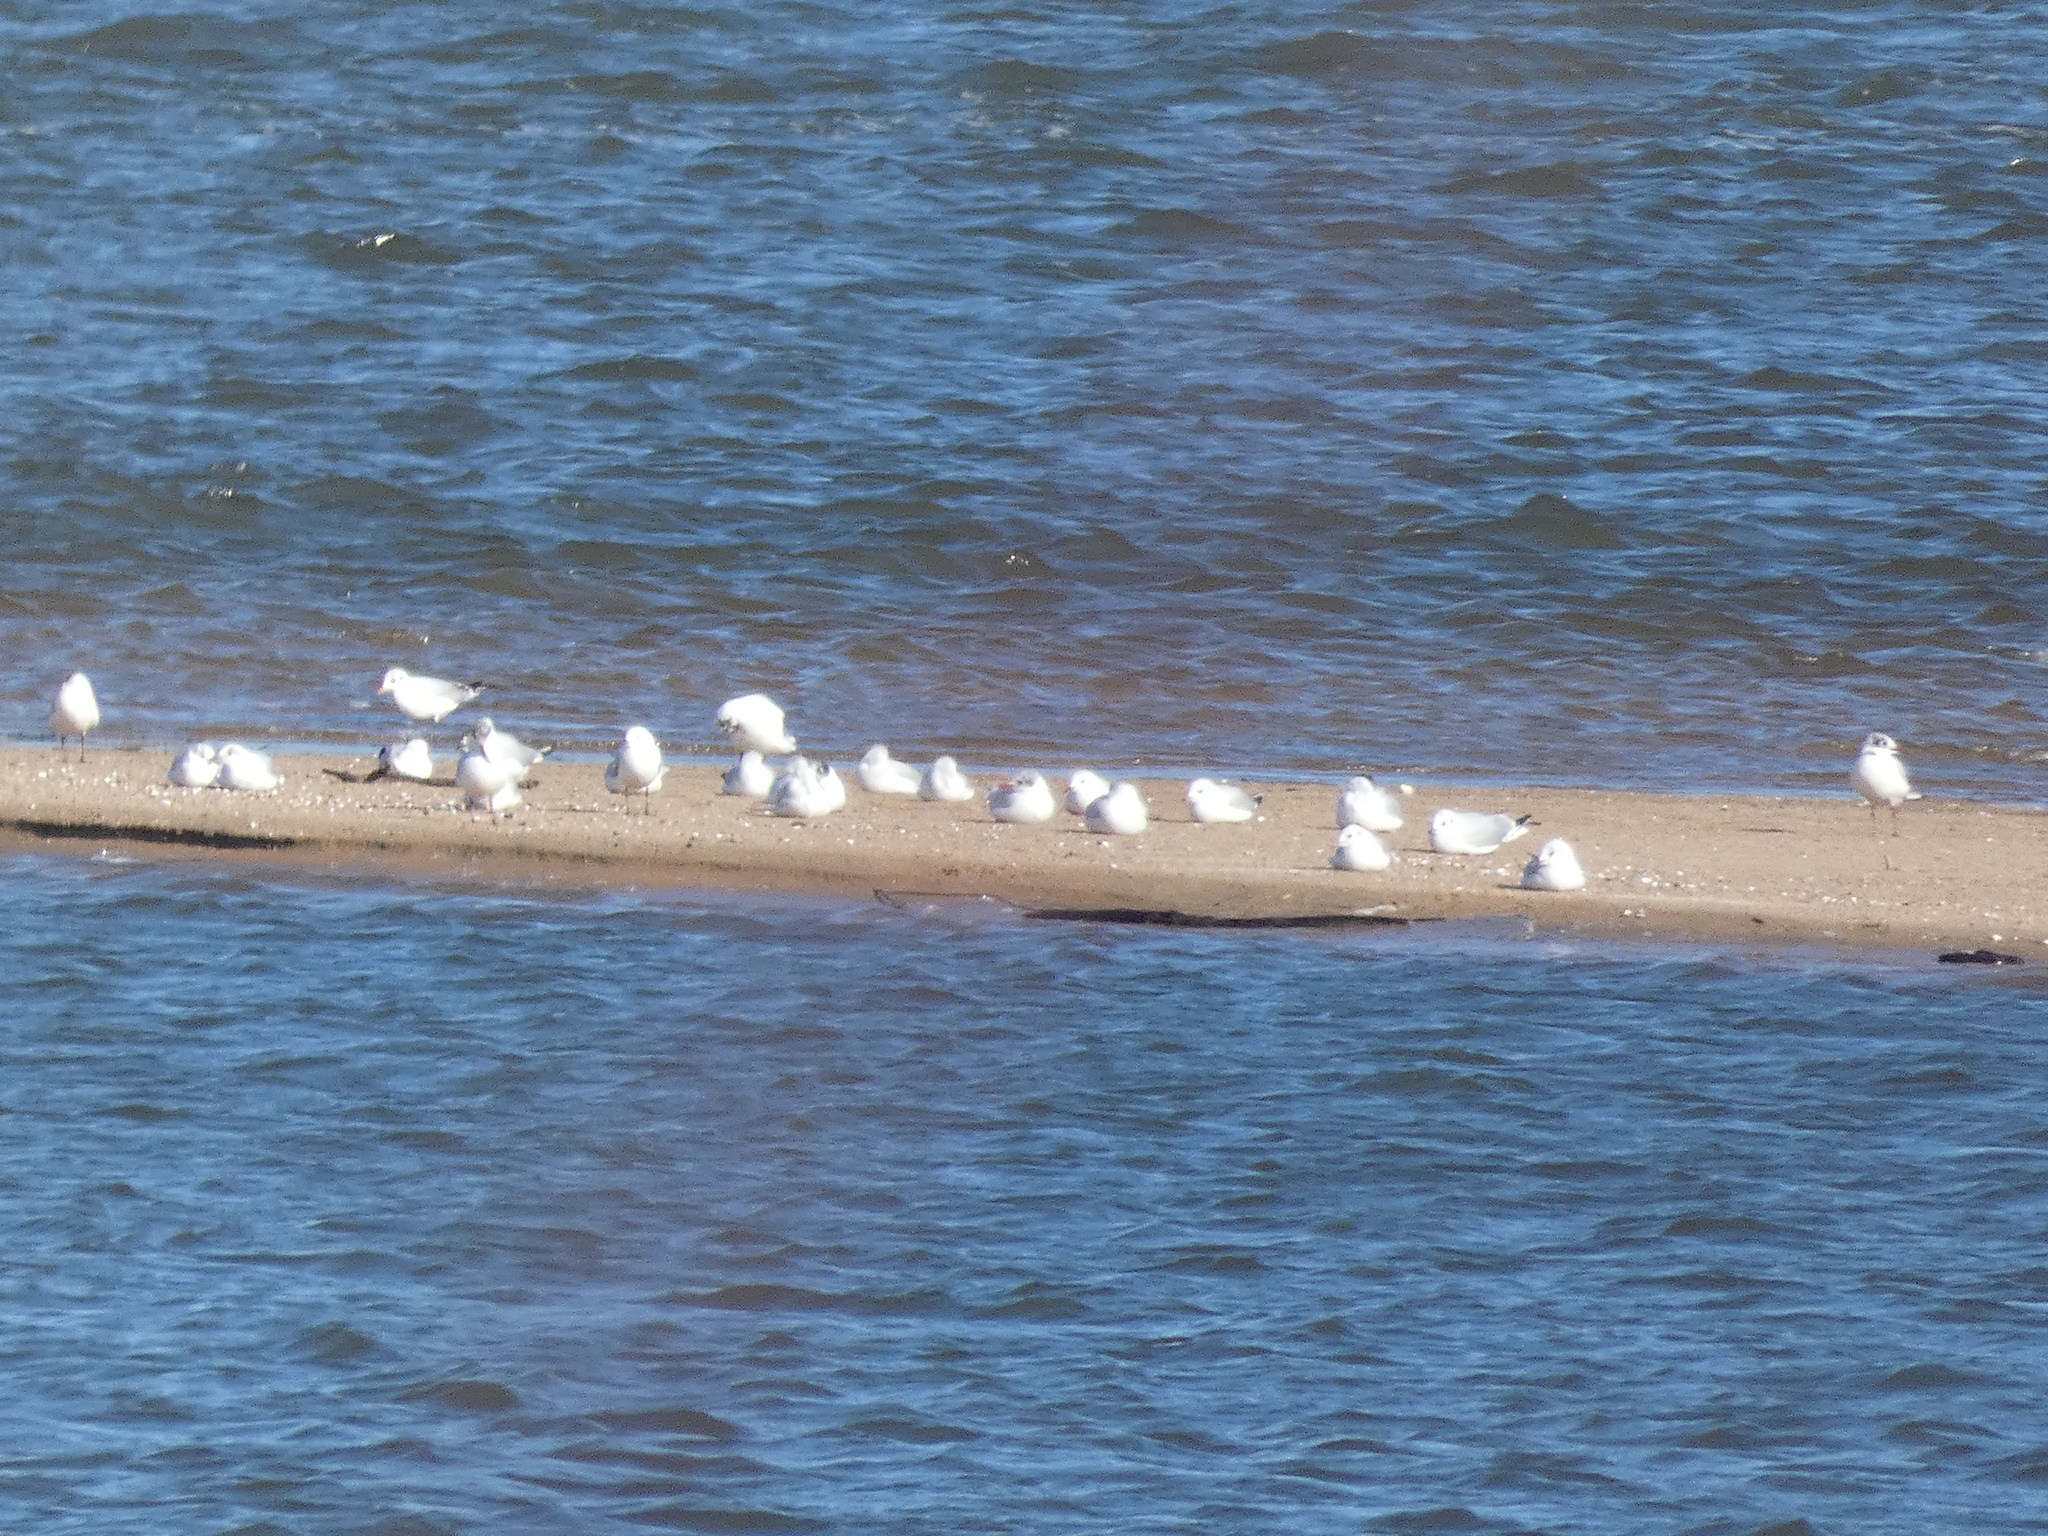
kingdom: Animalia
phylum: Chordata
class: Aves
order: Charadriiformes
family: Laridae
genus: Ichthyaetus
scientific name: Ichthyaetus melanocephalus
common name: Mediterranean gull
